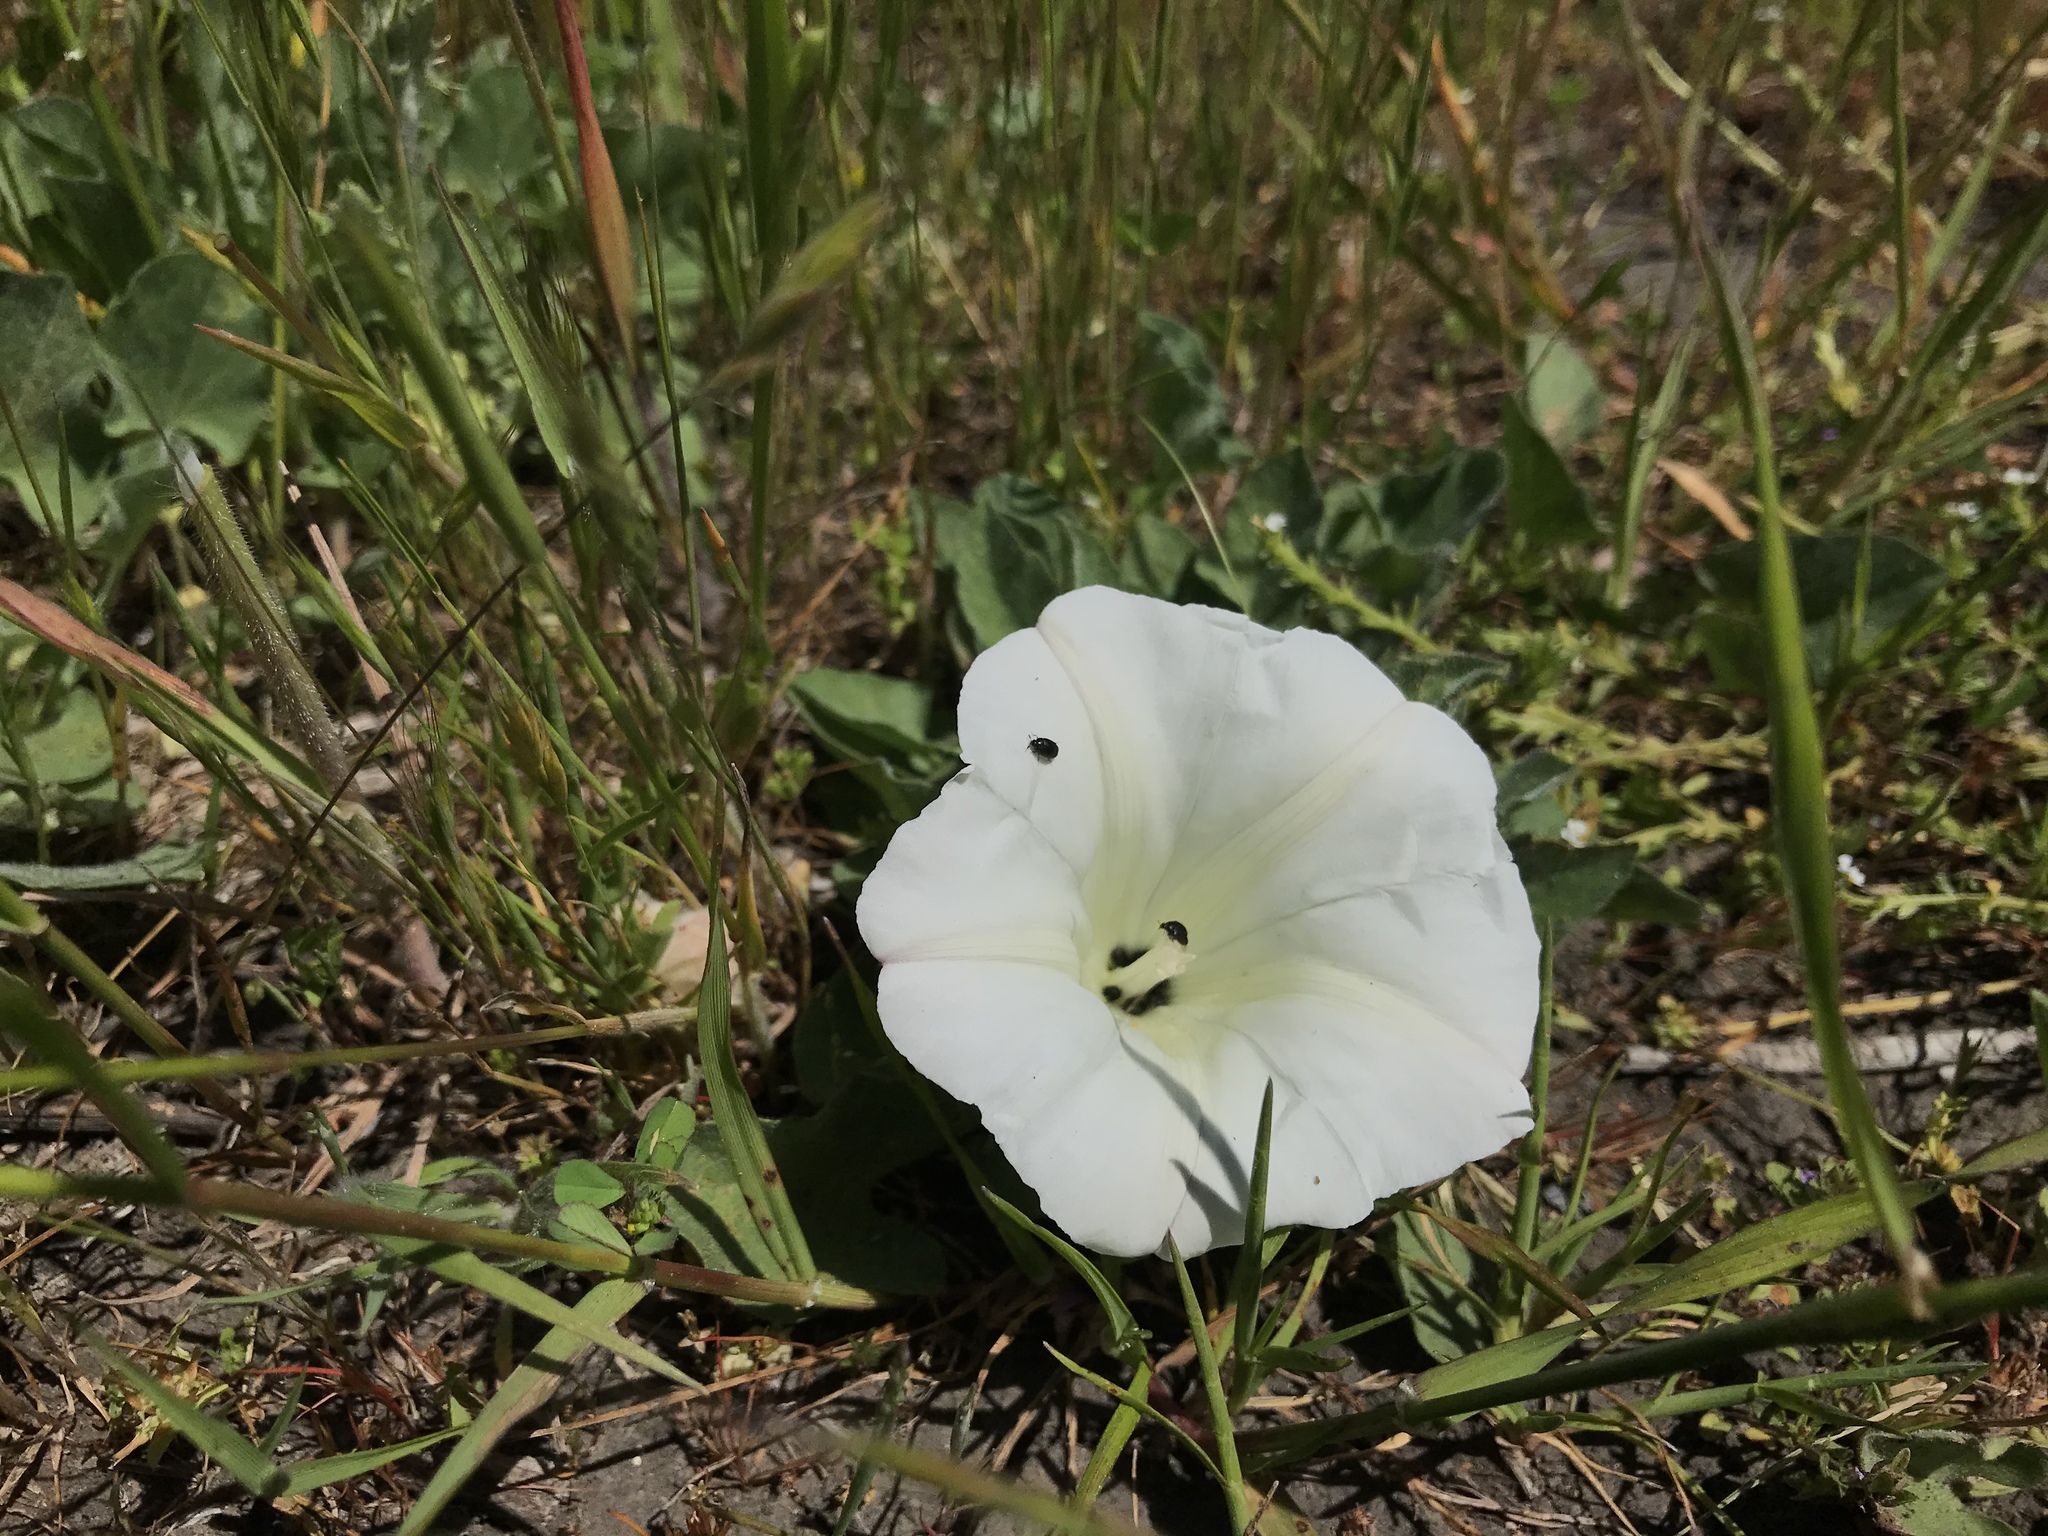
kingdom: Plantae
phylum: Tracheophyta
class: Magnoliopsida
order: Solanales
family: Convolvulaceae
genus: Calystegia
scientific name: Calystegia subacaulis
